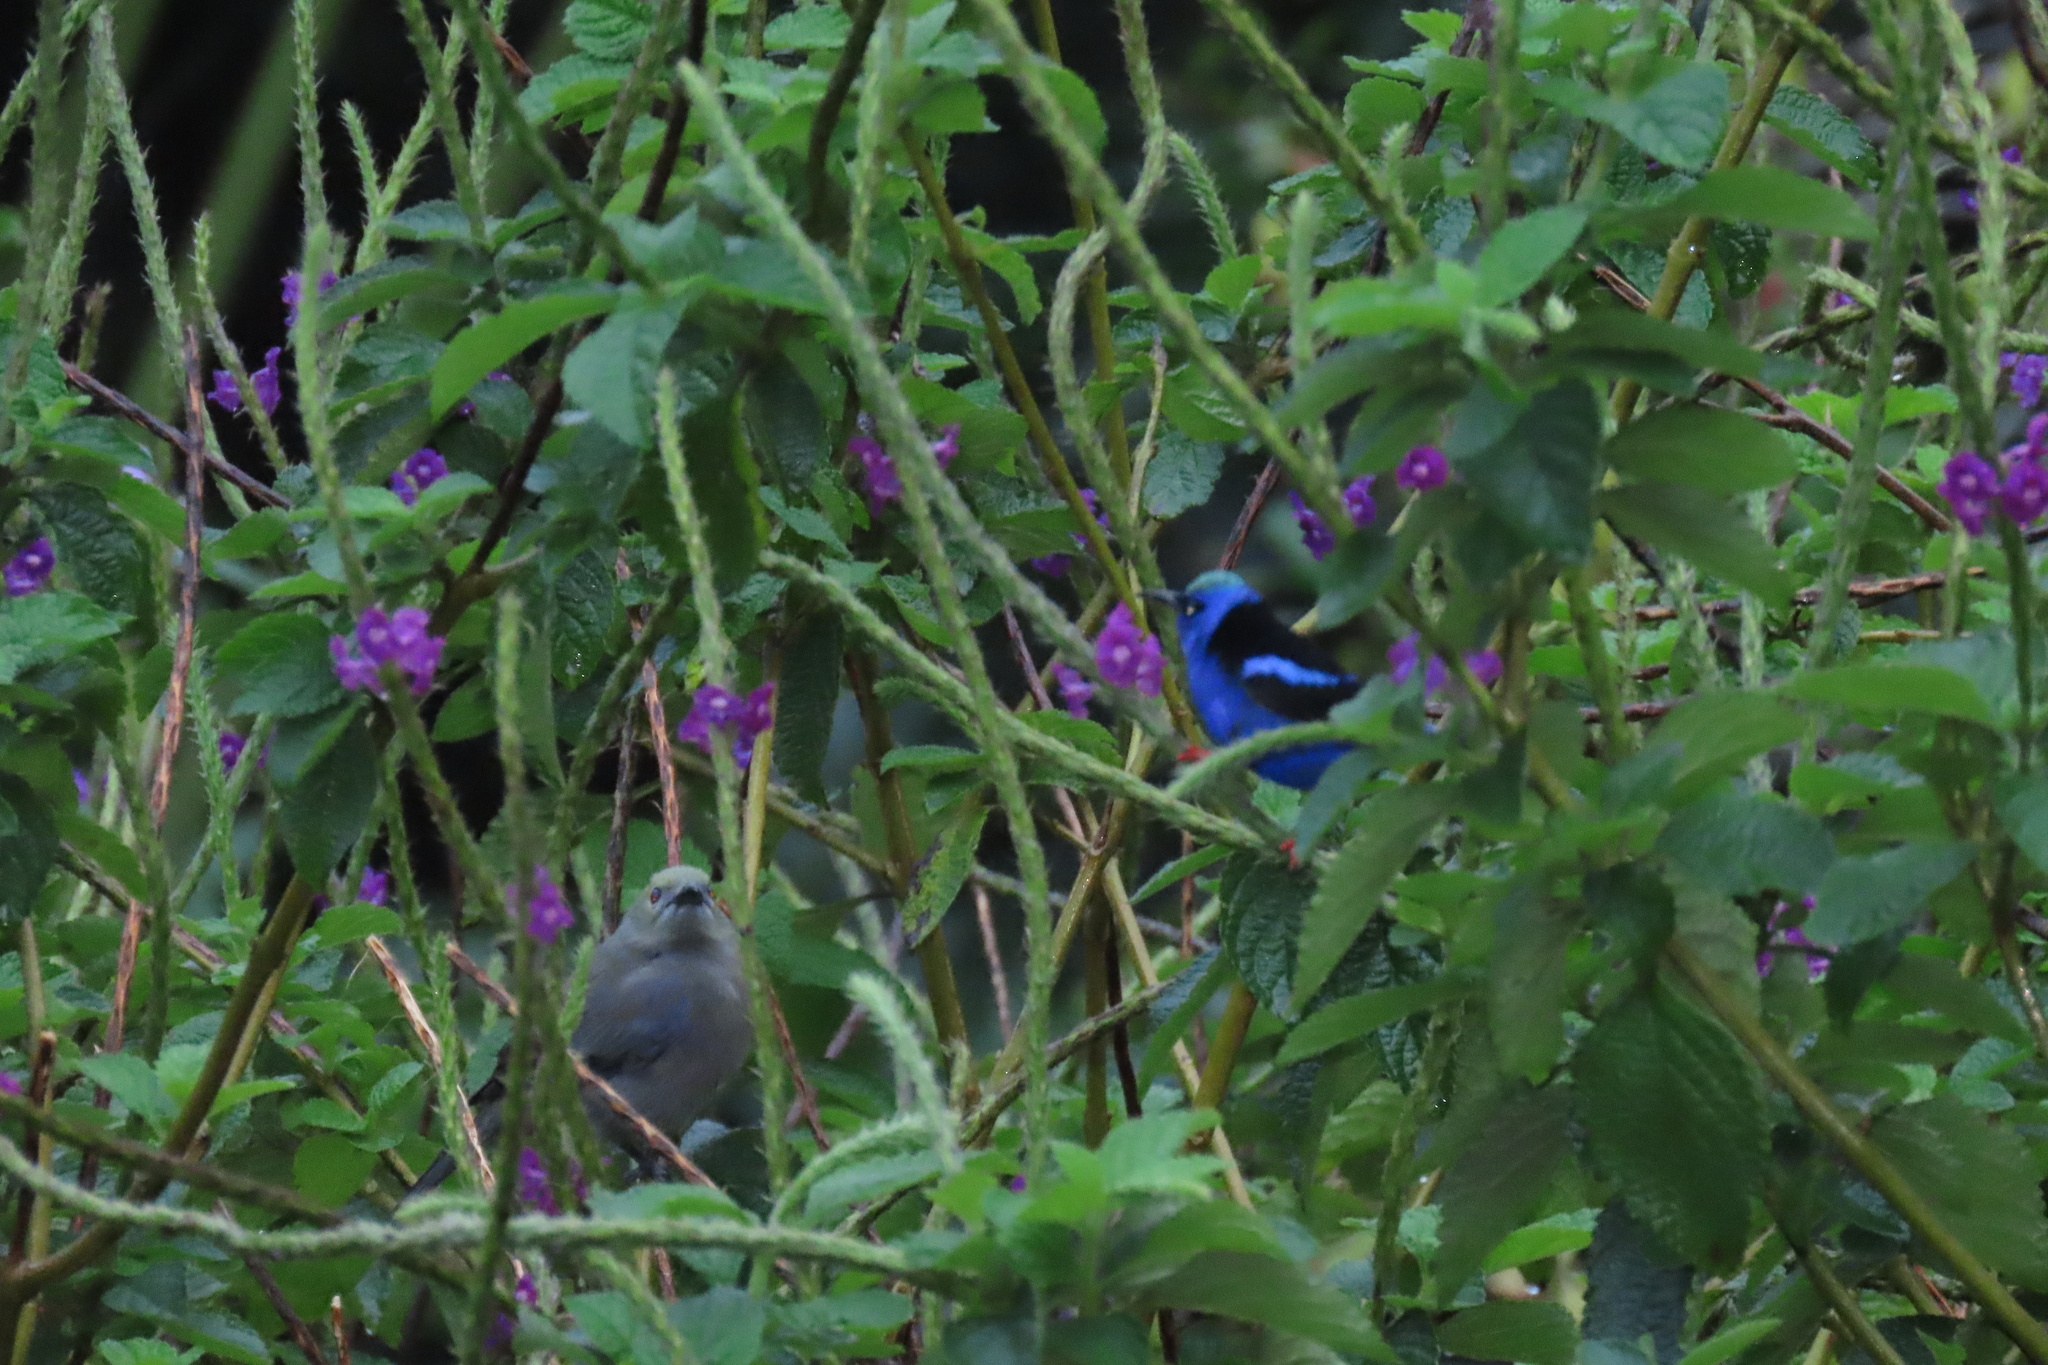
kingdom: Animalia
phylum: Chordata
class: Aves
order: Passeriformes
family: Thraupidae
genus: Cyanerpes
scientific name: Cyanerpes cyaneus
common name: Red-legged honeycreeper
